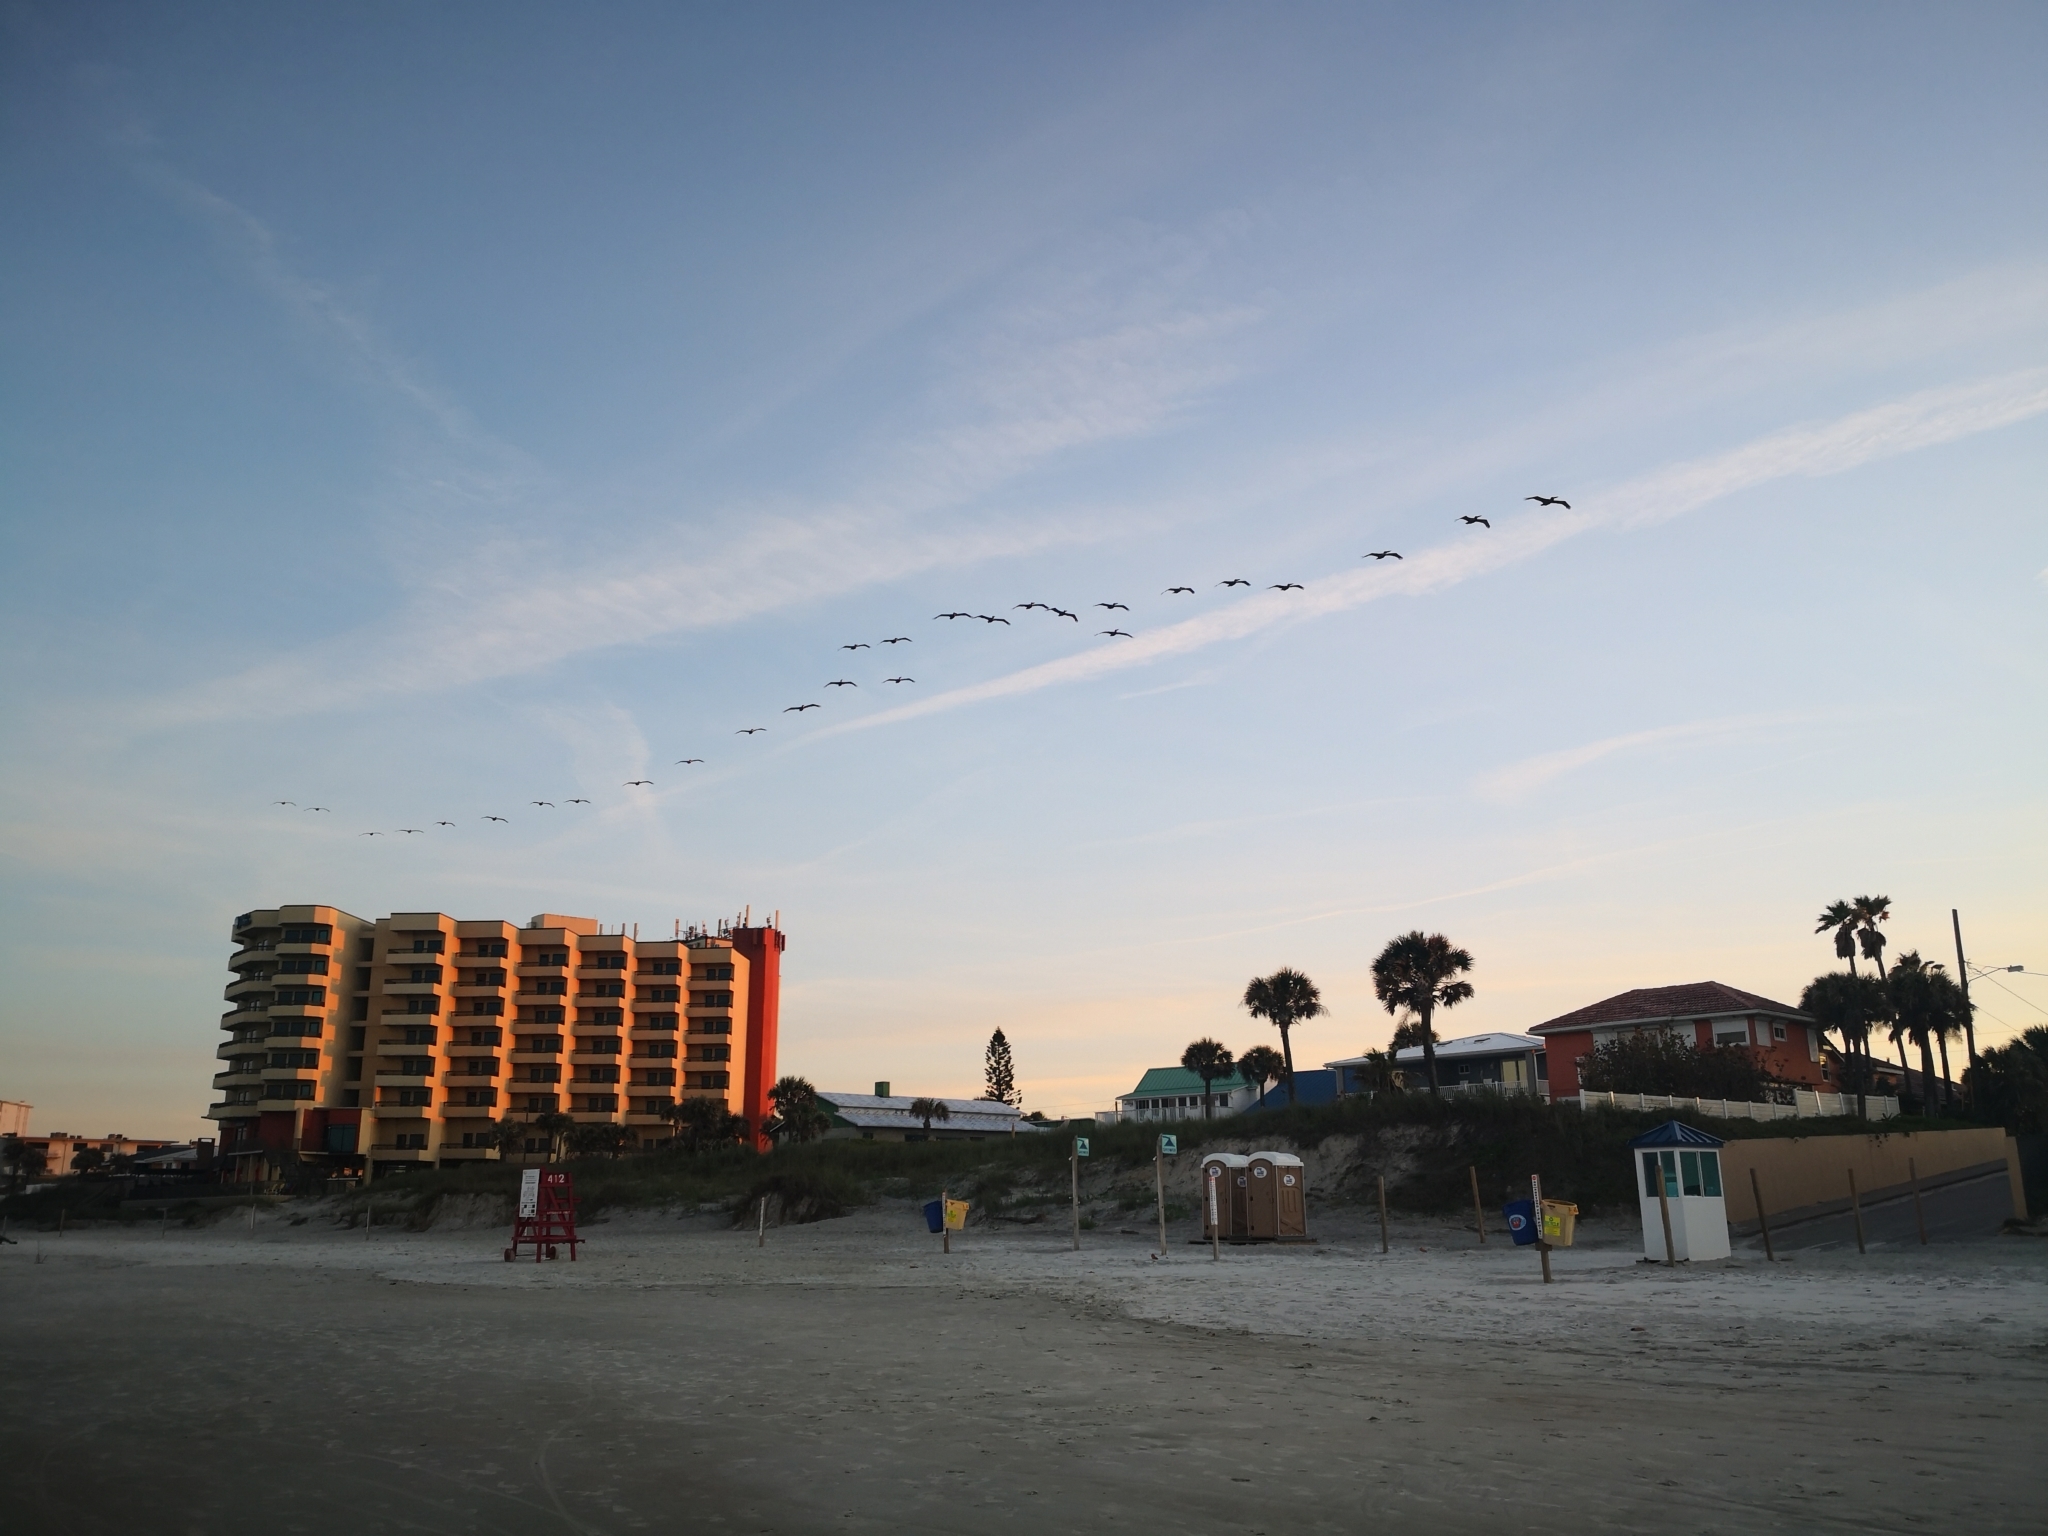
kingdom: Animalia
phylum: Chordata
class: Aves
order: Pelecaniformes
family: Pelecanidae
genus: Pelecanus
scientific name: Pelecanus occidentalis
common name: Brown pelican
